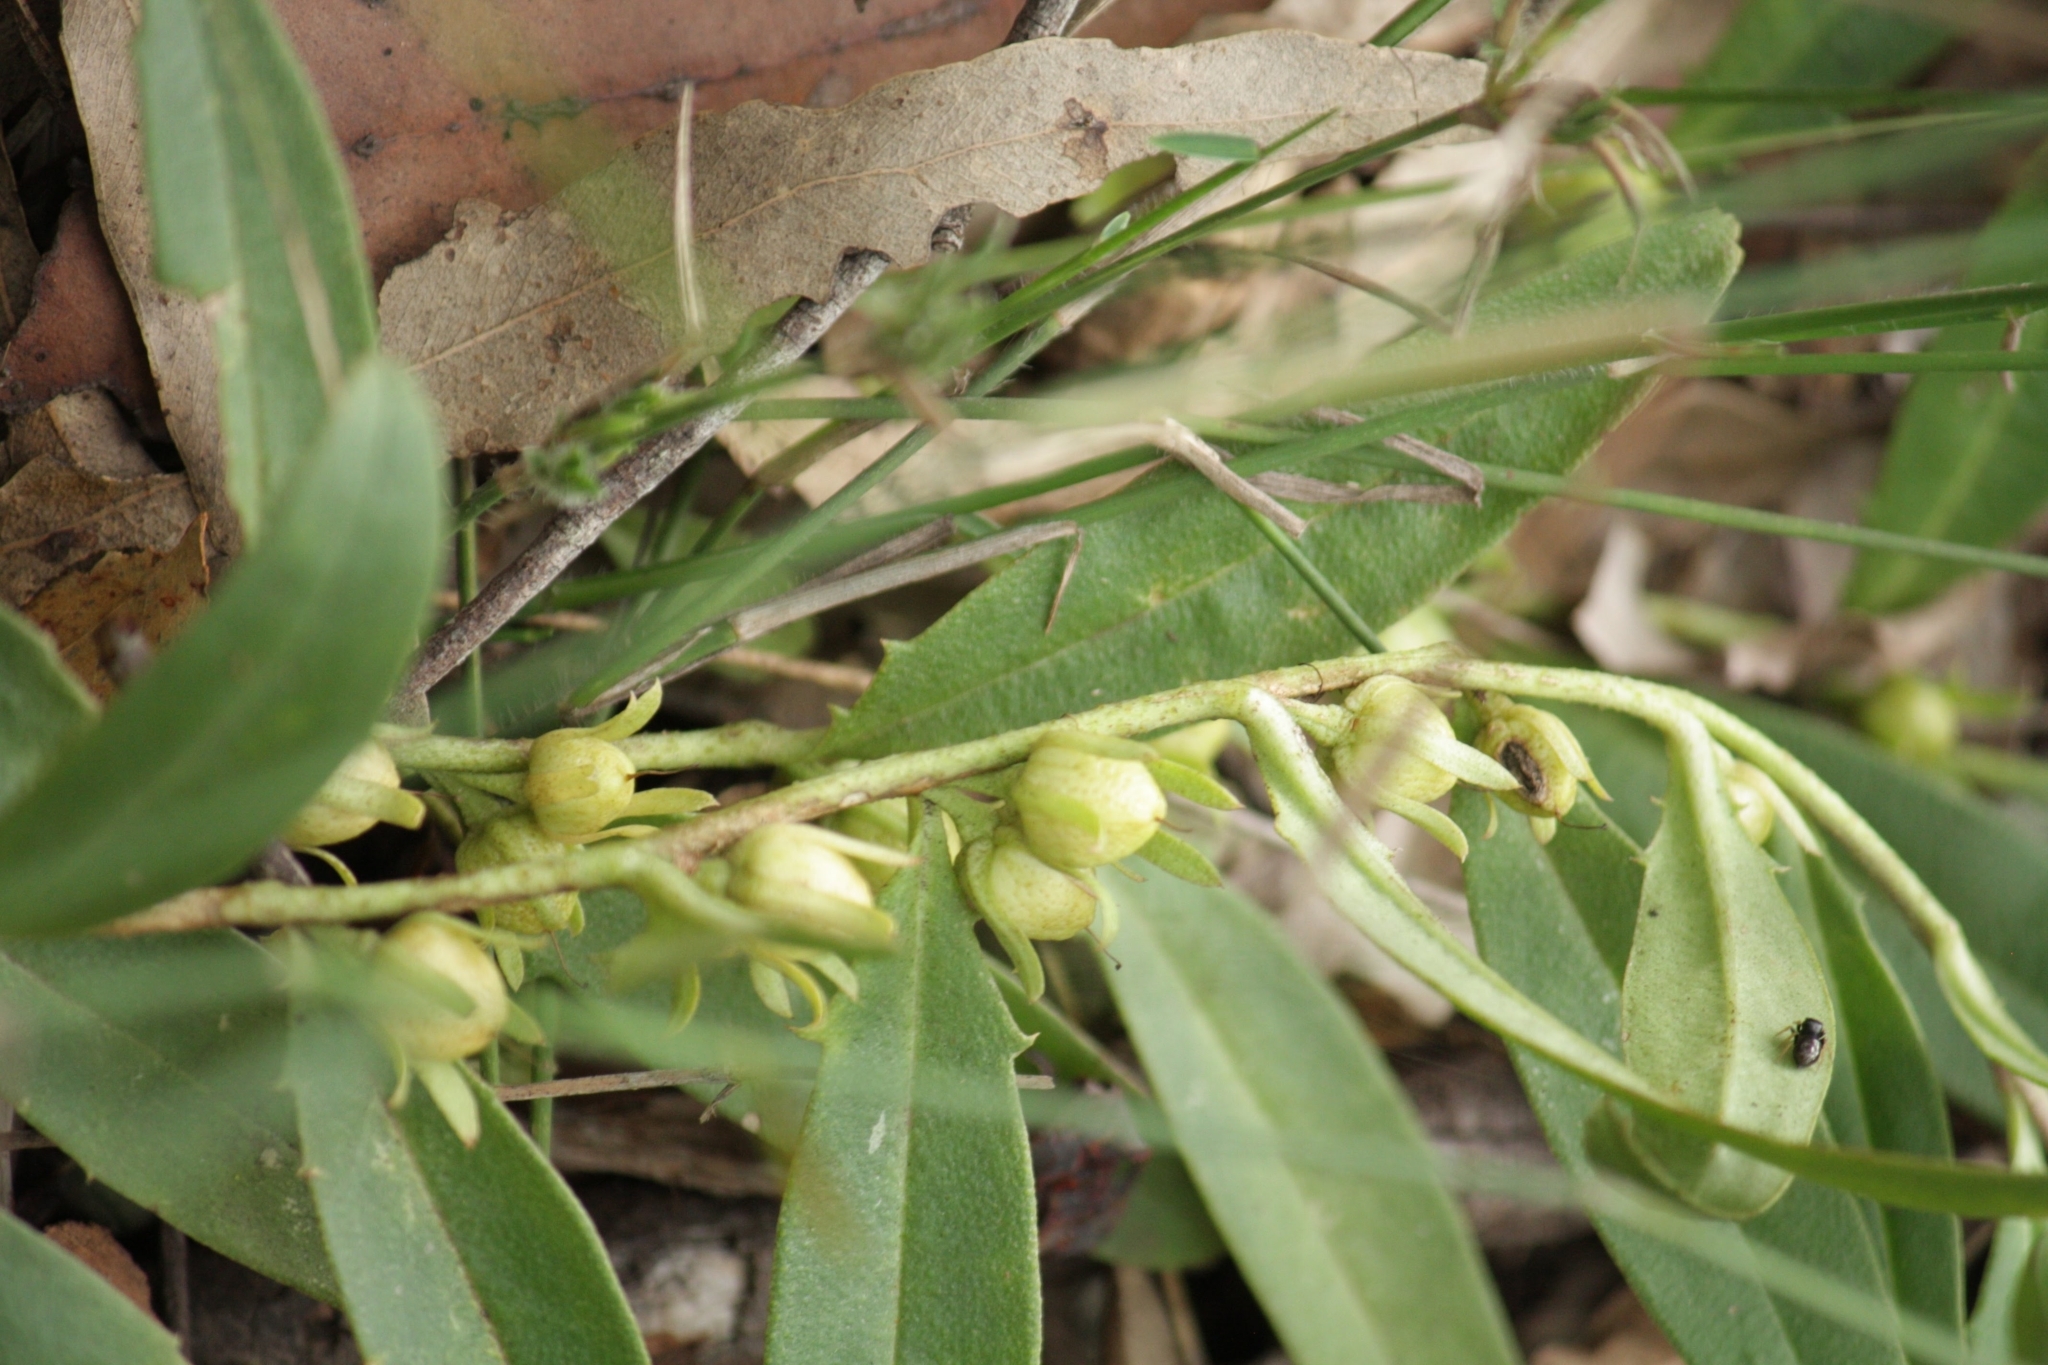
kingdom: Plantae
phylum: Tracheophyta
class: Magnoliopsida
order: Lamiales
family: Scrophulariaceae
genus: Eremophila
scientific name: Eremophila debilis
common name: Winter-apple
